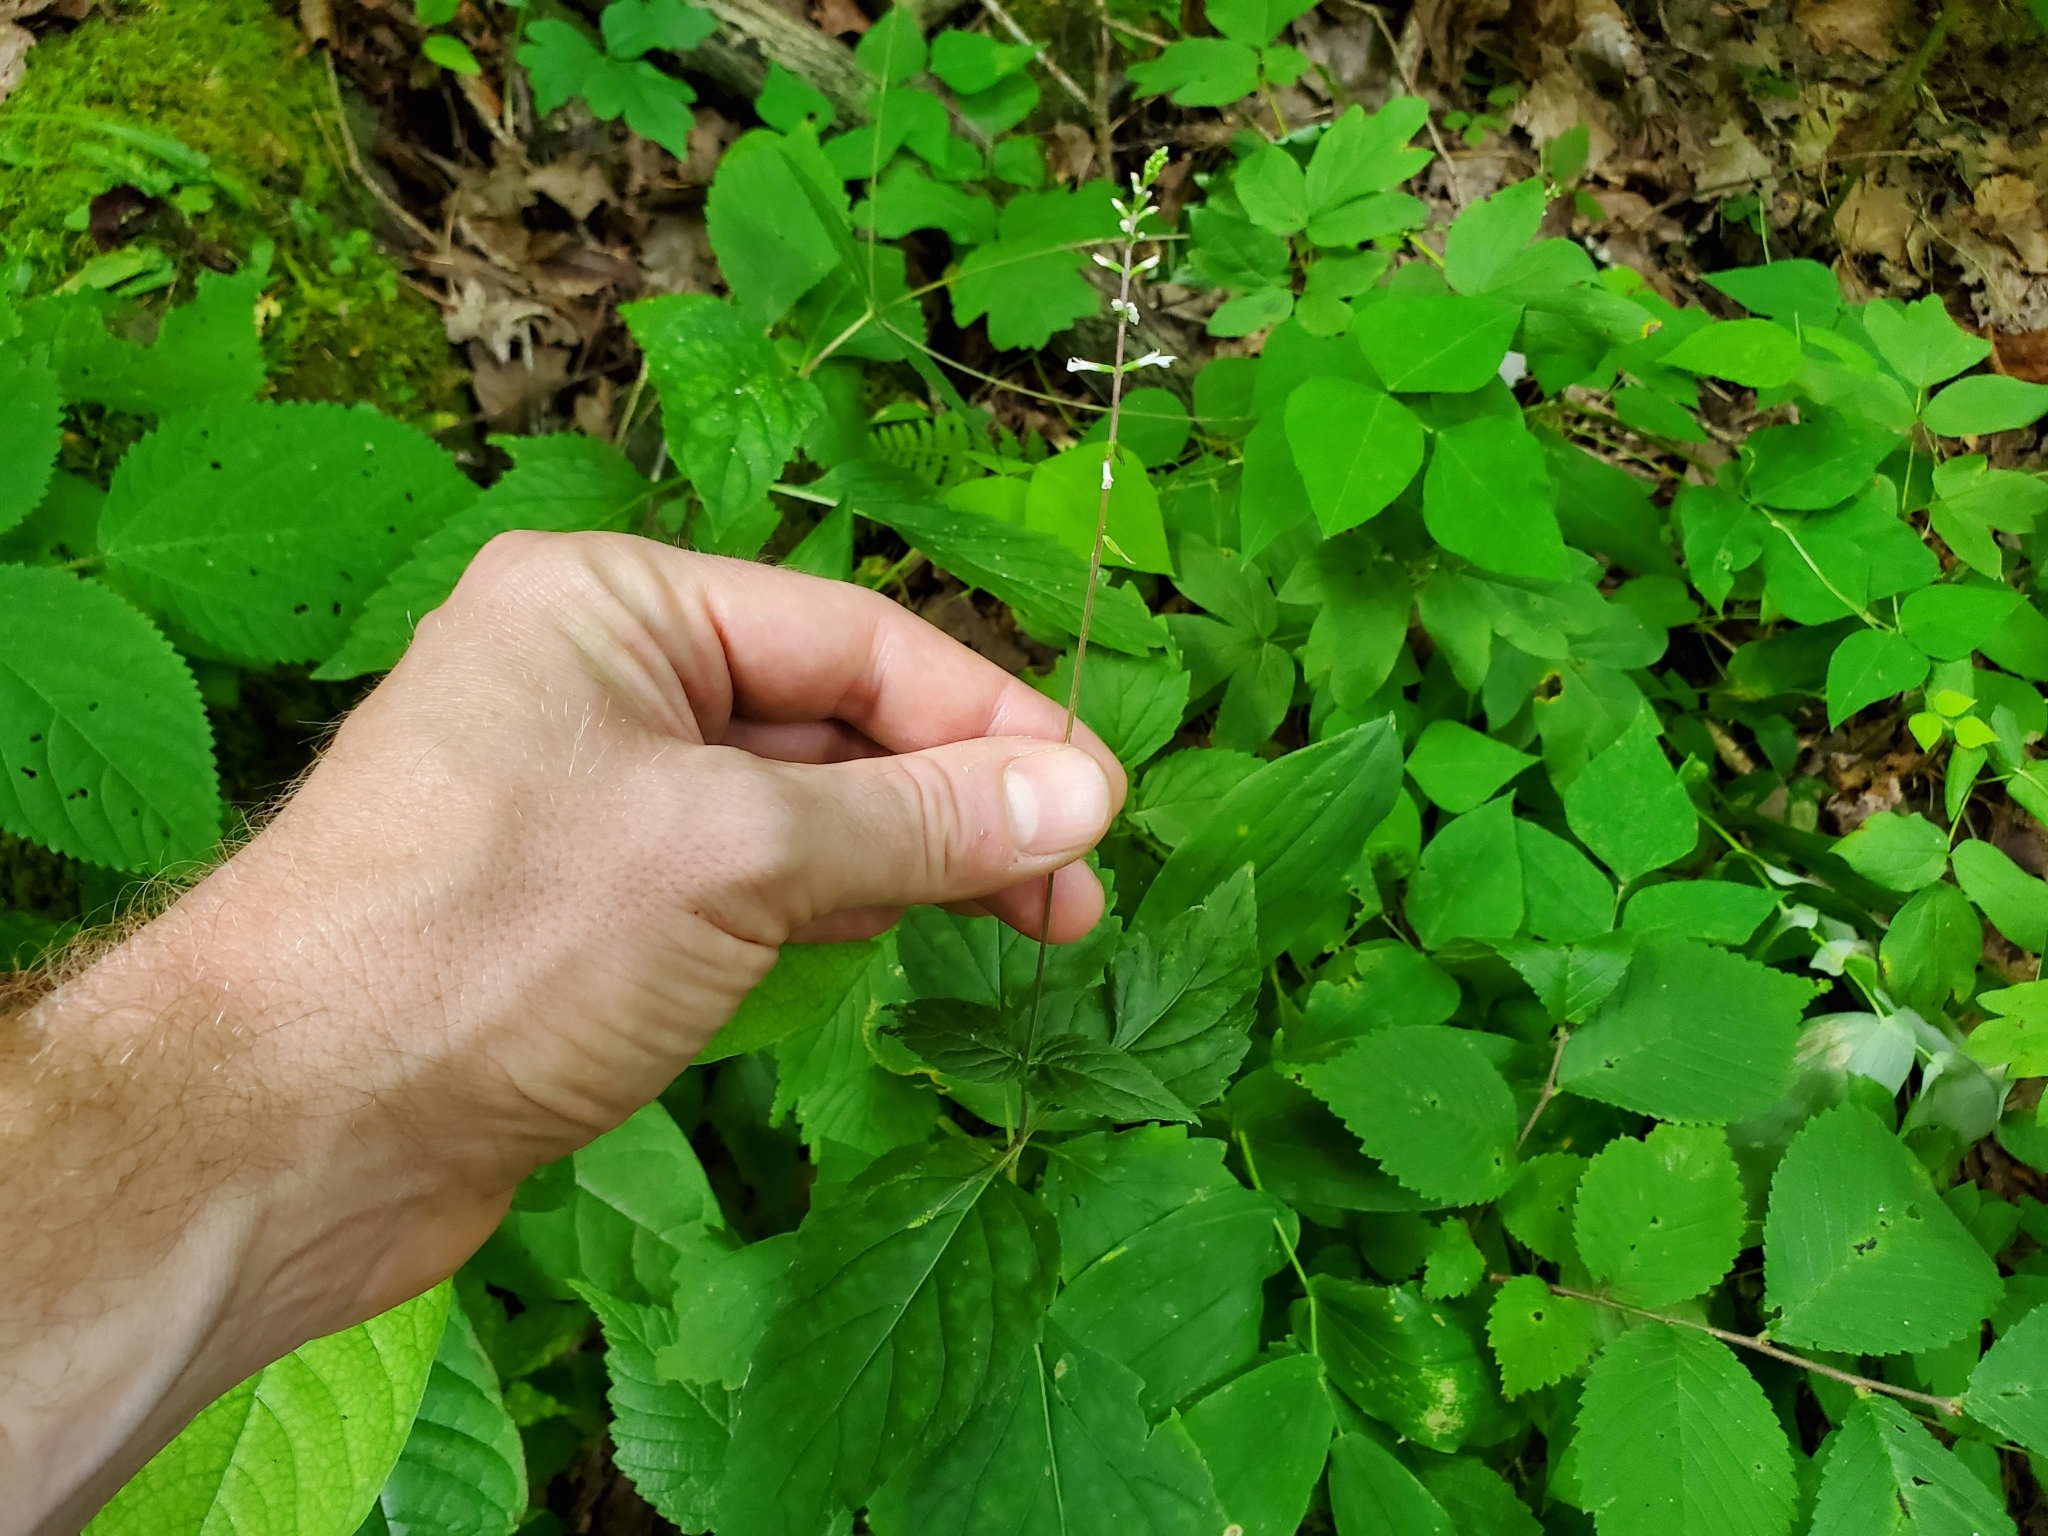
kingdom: Plantae
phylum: Tracheophyta
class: Magnoliopsida
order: Lamiales
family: Phrymaceae
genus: Phryma
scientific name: Phryma leptostachya
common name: American lopseed
